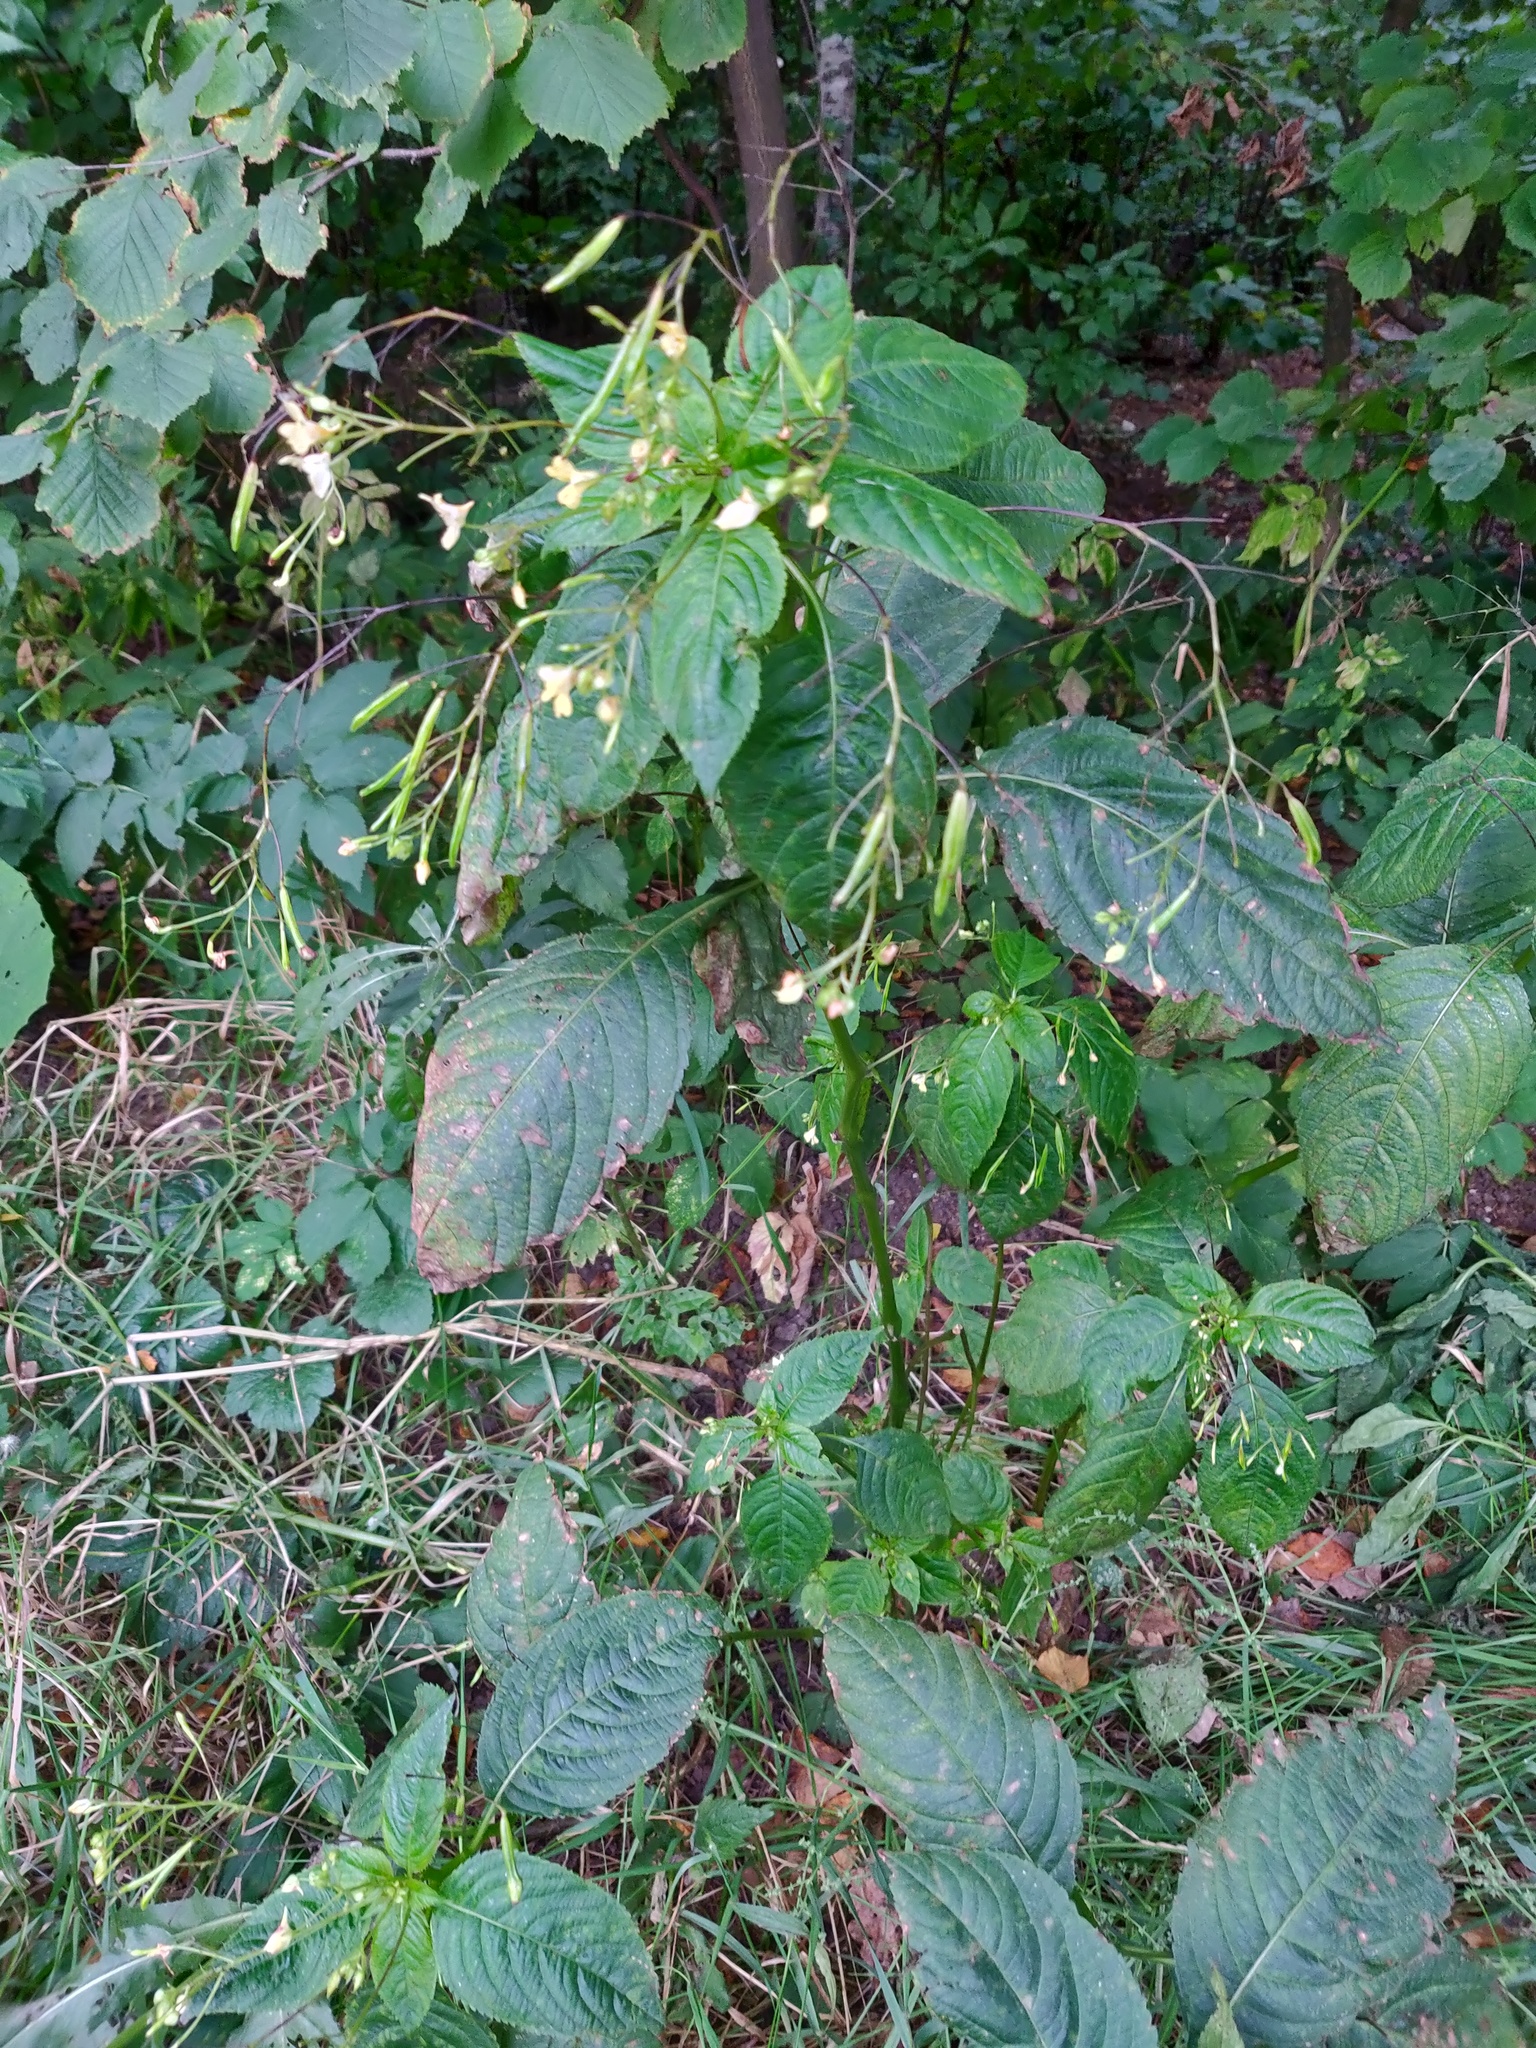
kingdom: Plantae
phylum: Tracheophyta
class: Magnoliopsida
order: Ericales
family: Balsaminaceae
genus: Impatiens
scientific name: Impatiens parviflora
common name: Small balsam
